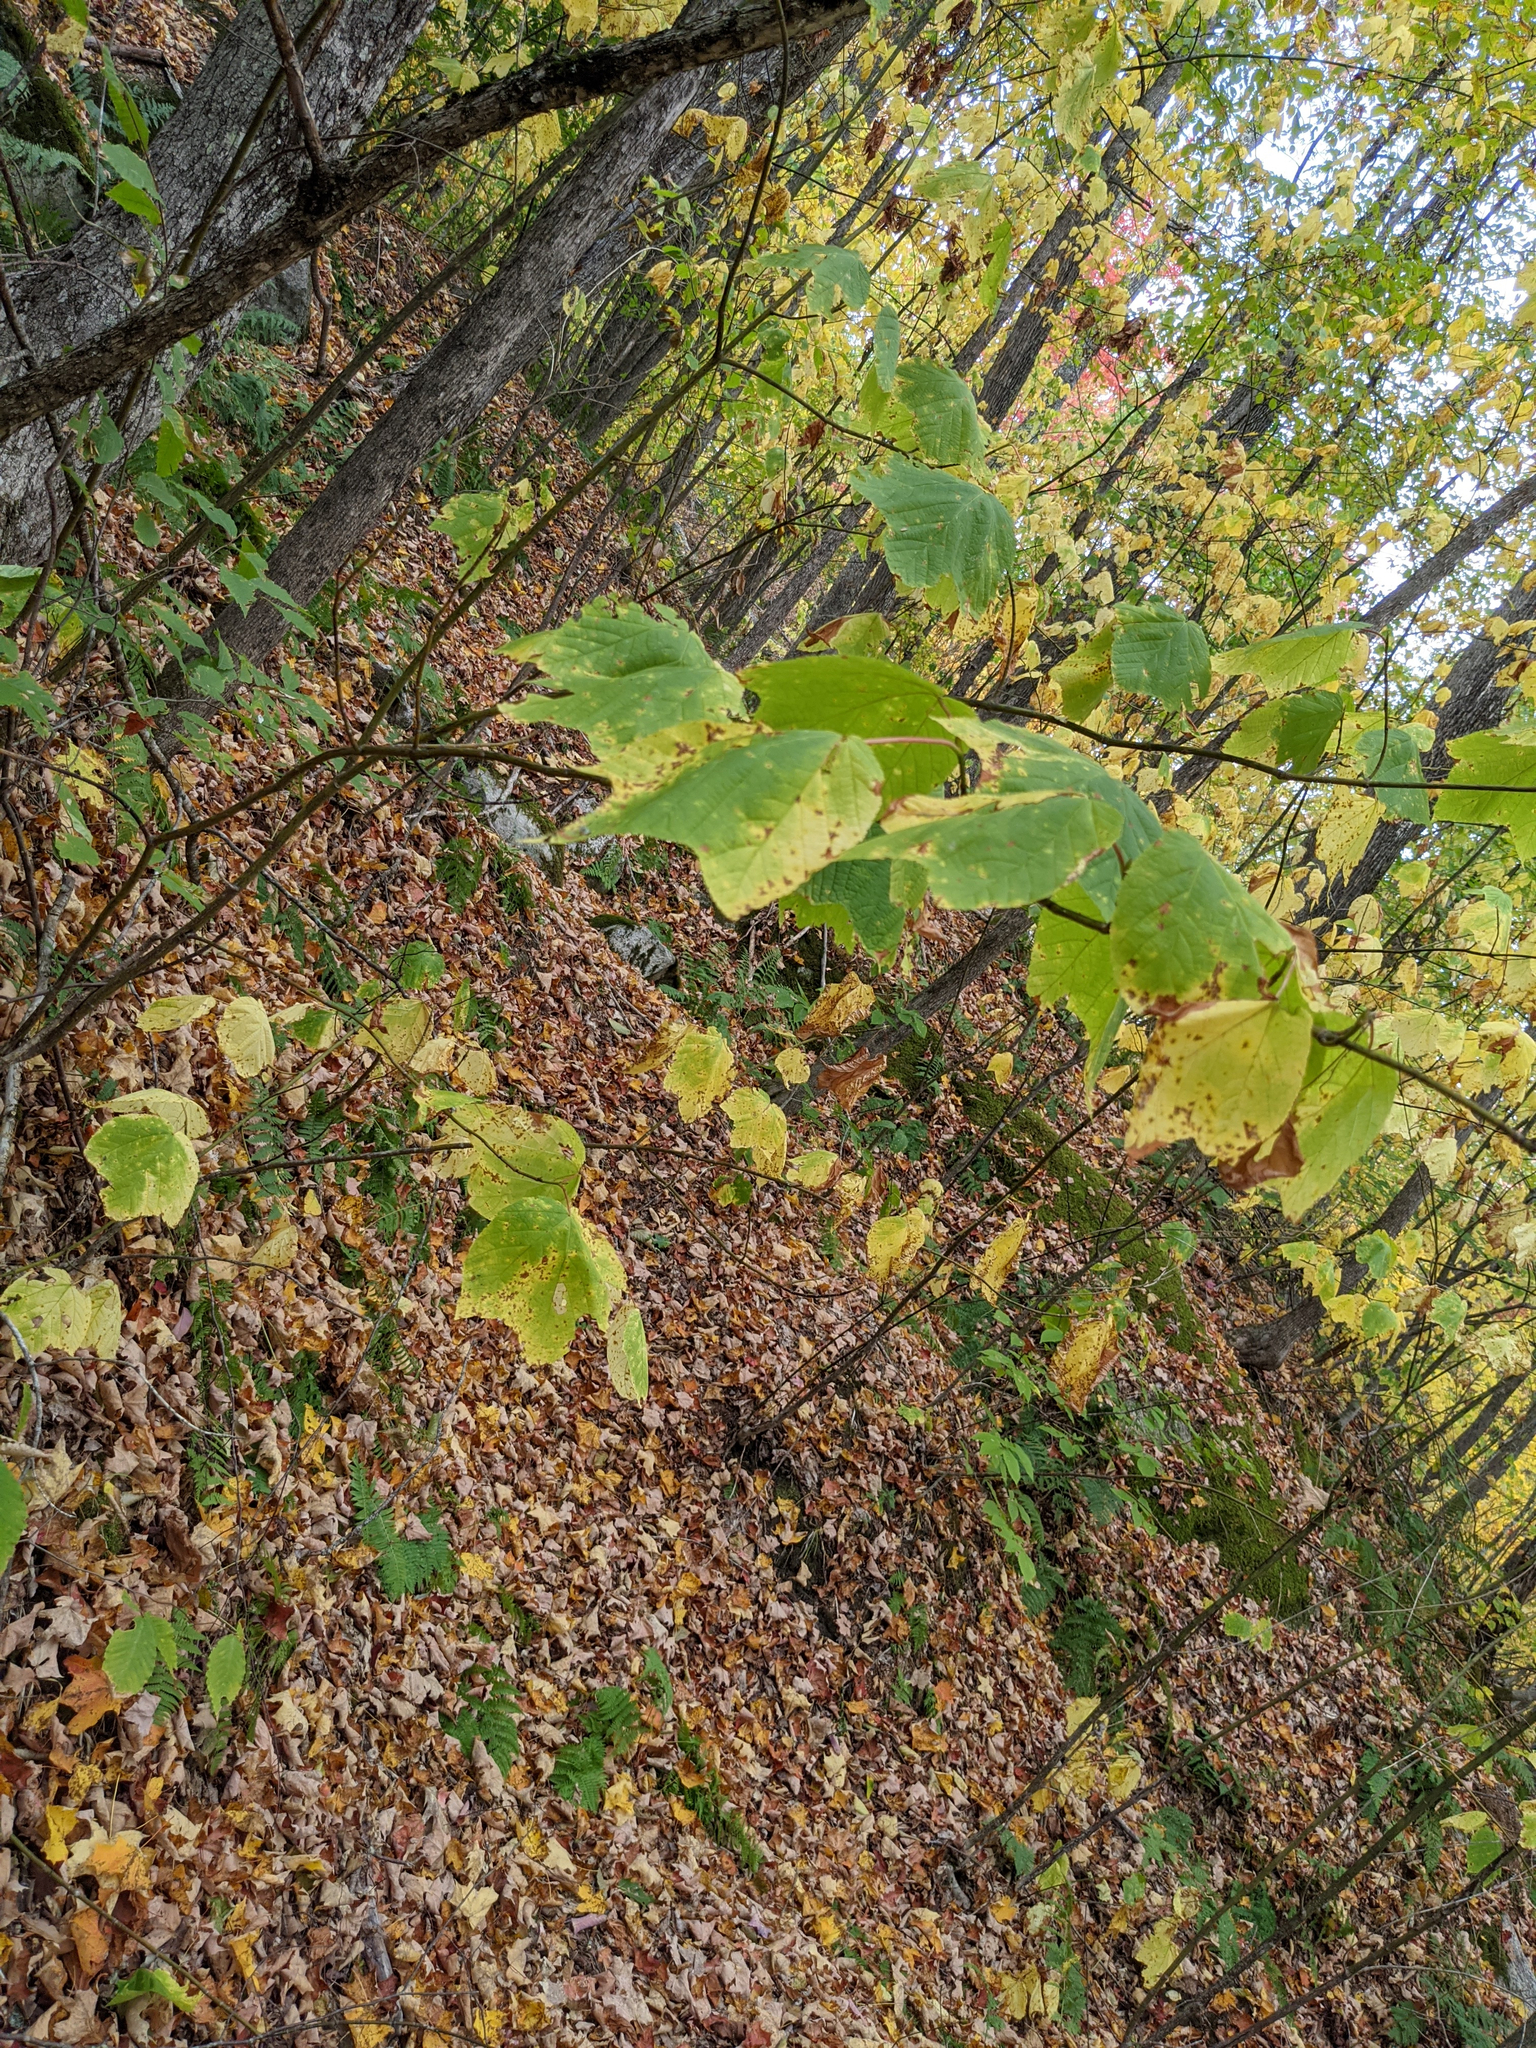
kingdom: Plantae
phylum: Tracheophyta
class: Magnoliopsida
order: Sapindales
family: Sapindaceae
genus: Acer
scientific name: Acer pensylvanicum
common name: Moosewood
